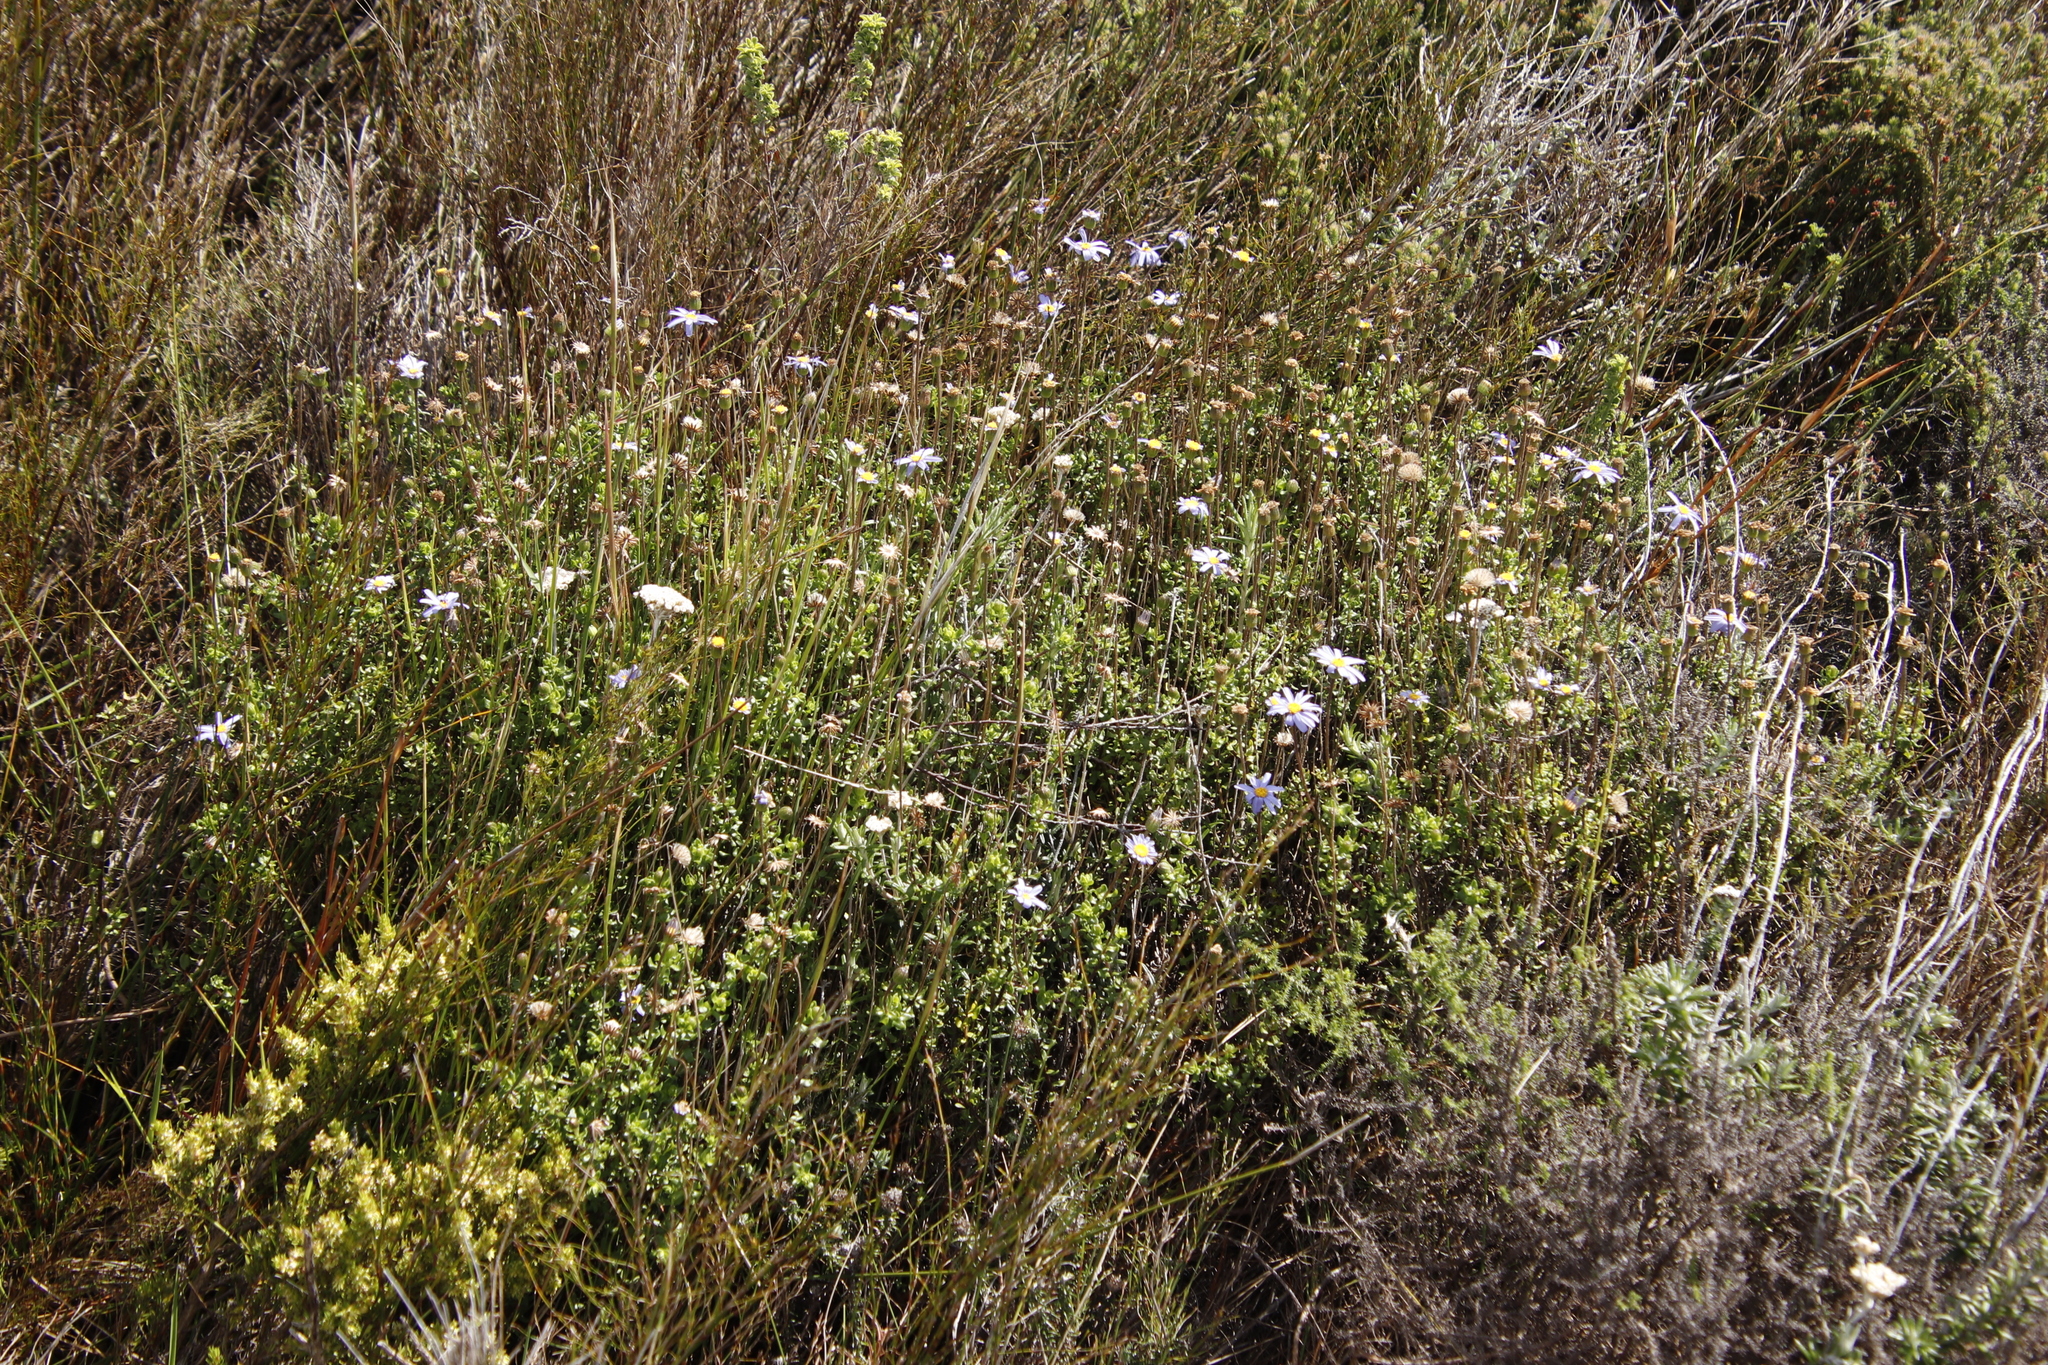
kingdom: Plantae
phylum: Tracheophyta
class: Magnoliopsida
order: Asterales
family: Asteraceae
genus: Felicia
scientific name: Felicia aethiopica
